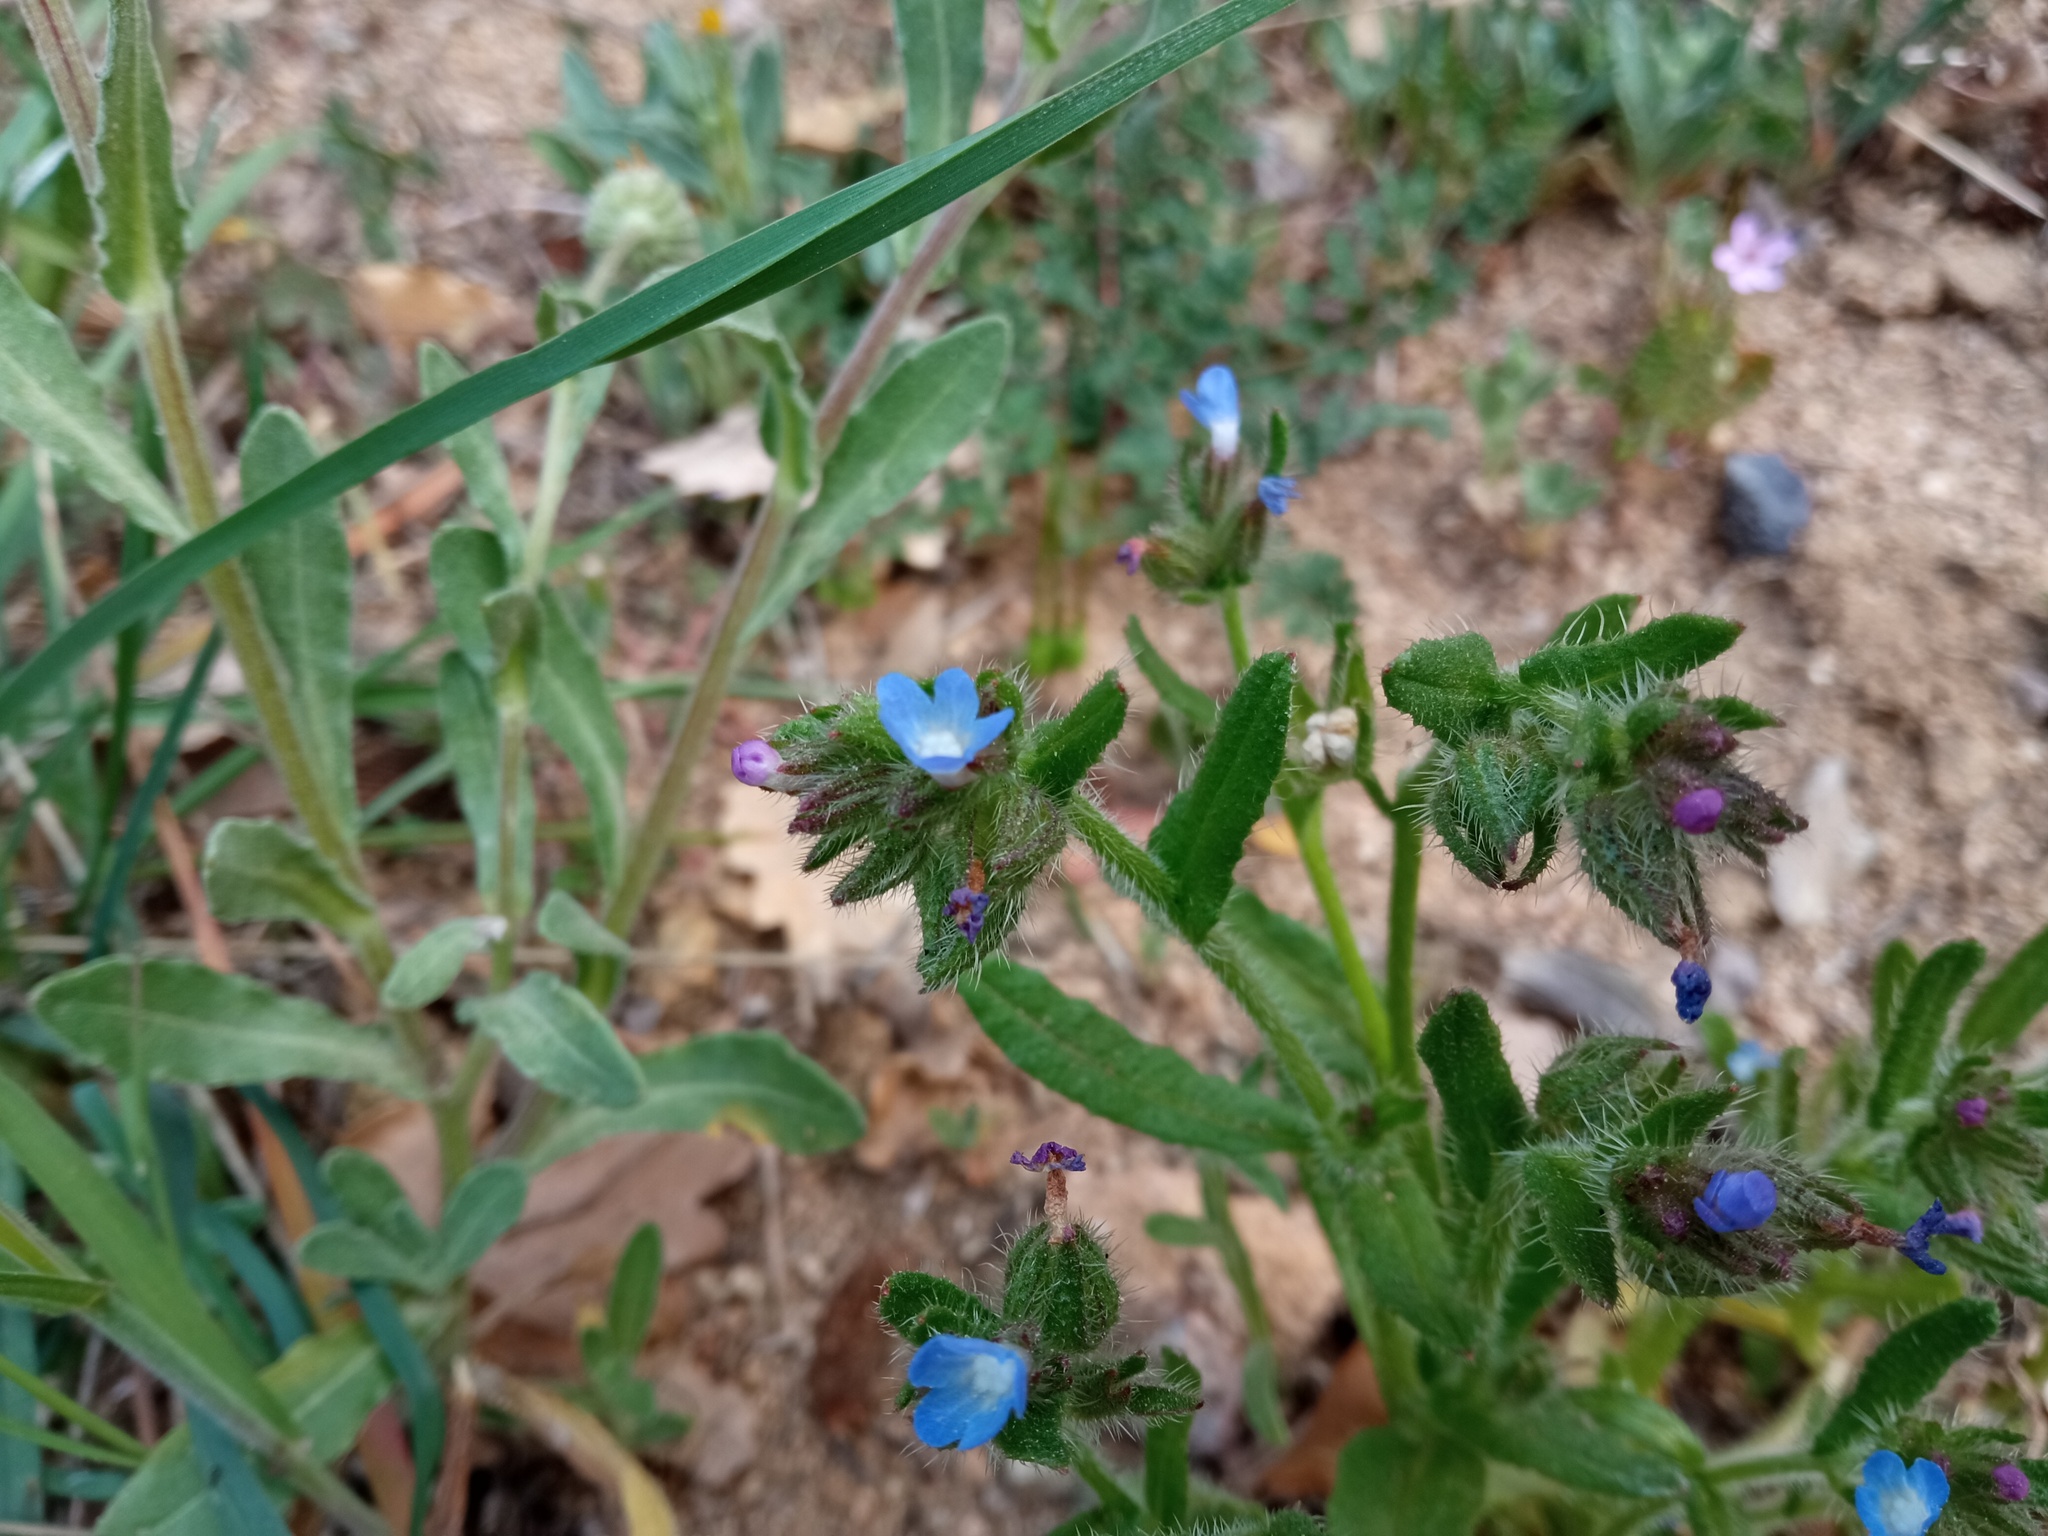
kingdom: Plantae
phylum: Tracheophyta
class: Magnoliopsida
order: Boraginales
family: Boraginaceae
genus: Lycopsis
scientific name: Lycopsis arvensis
